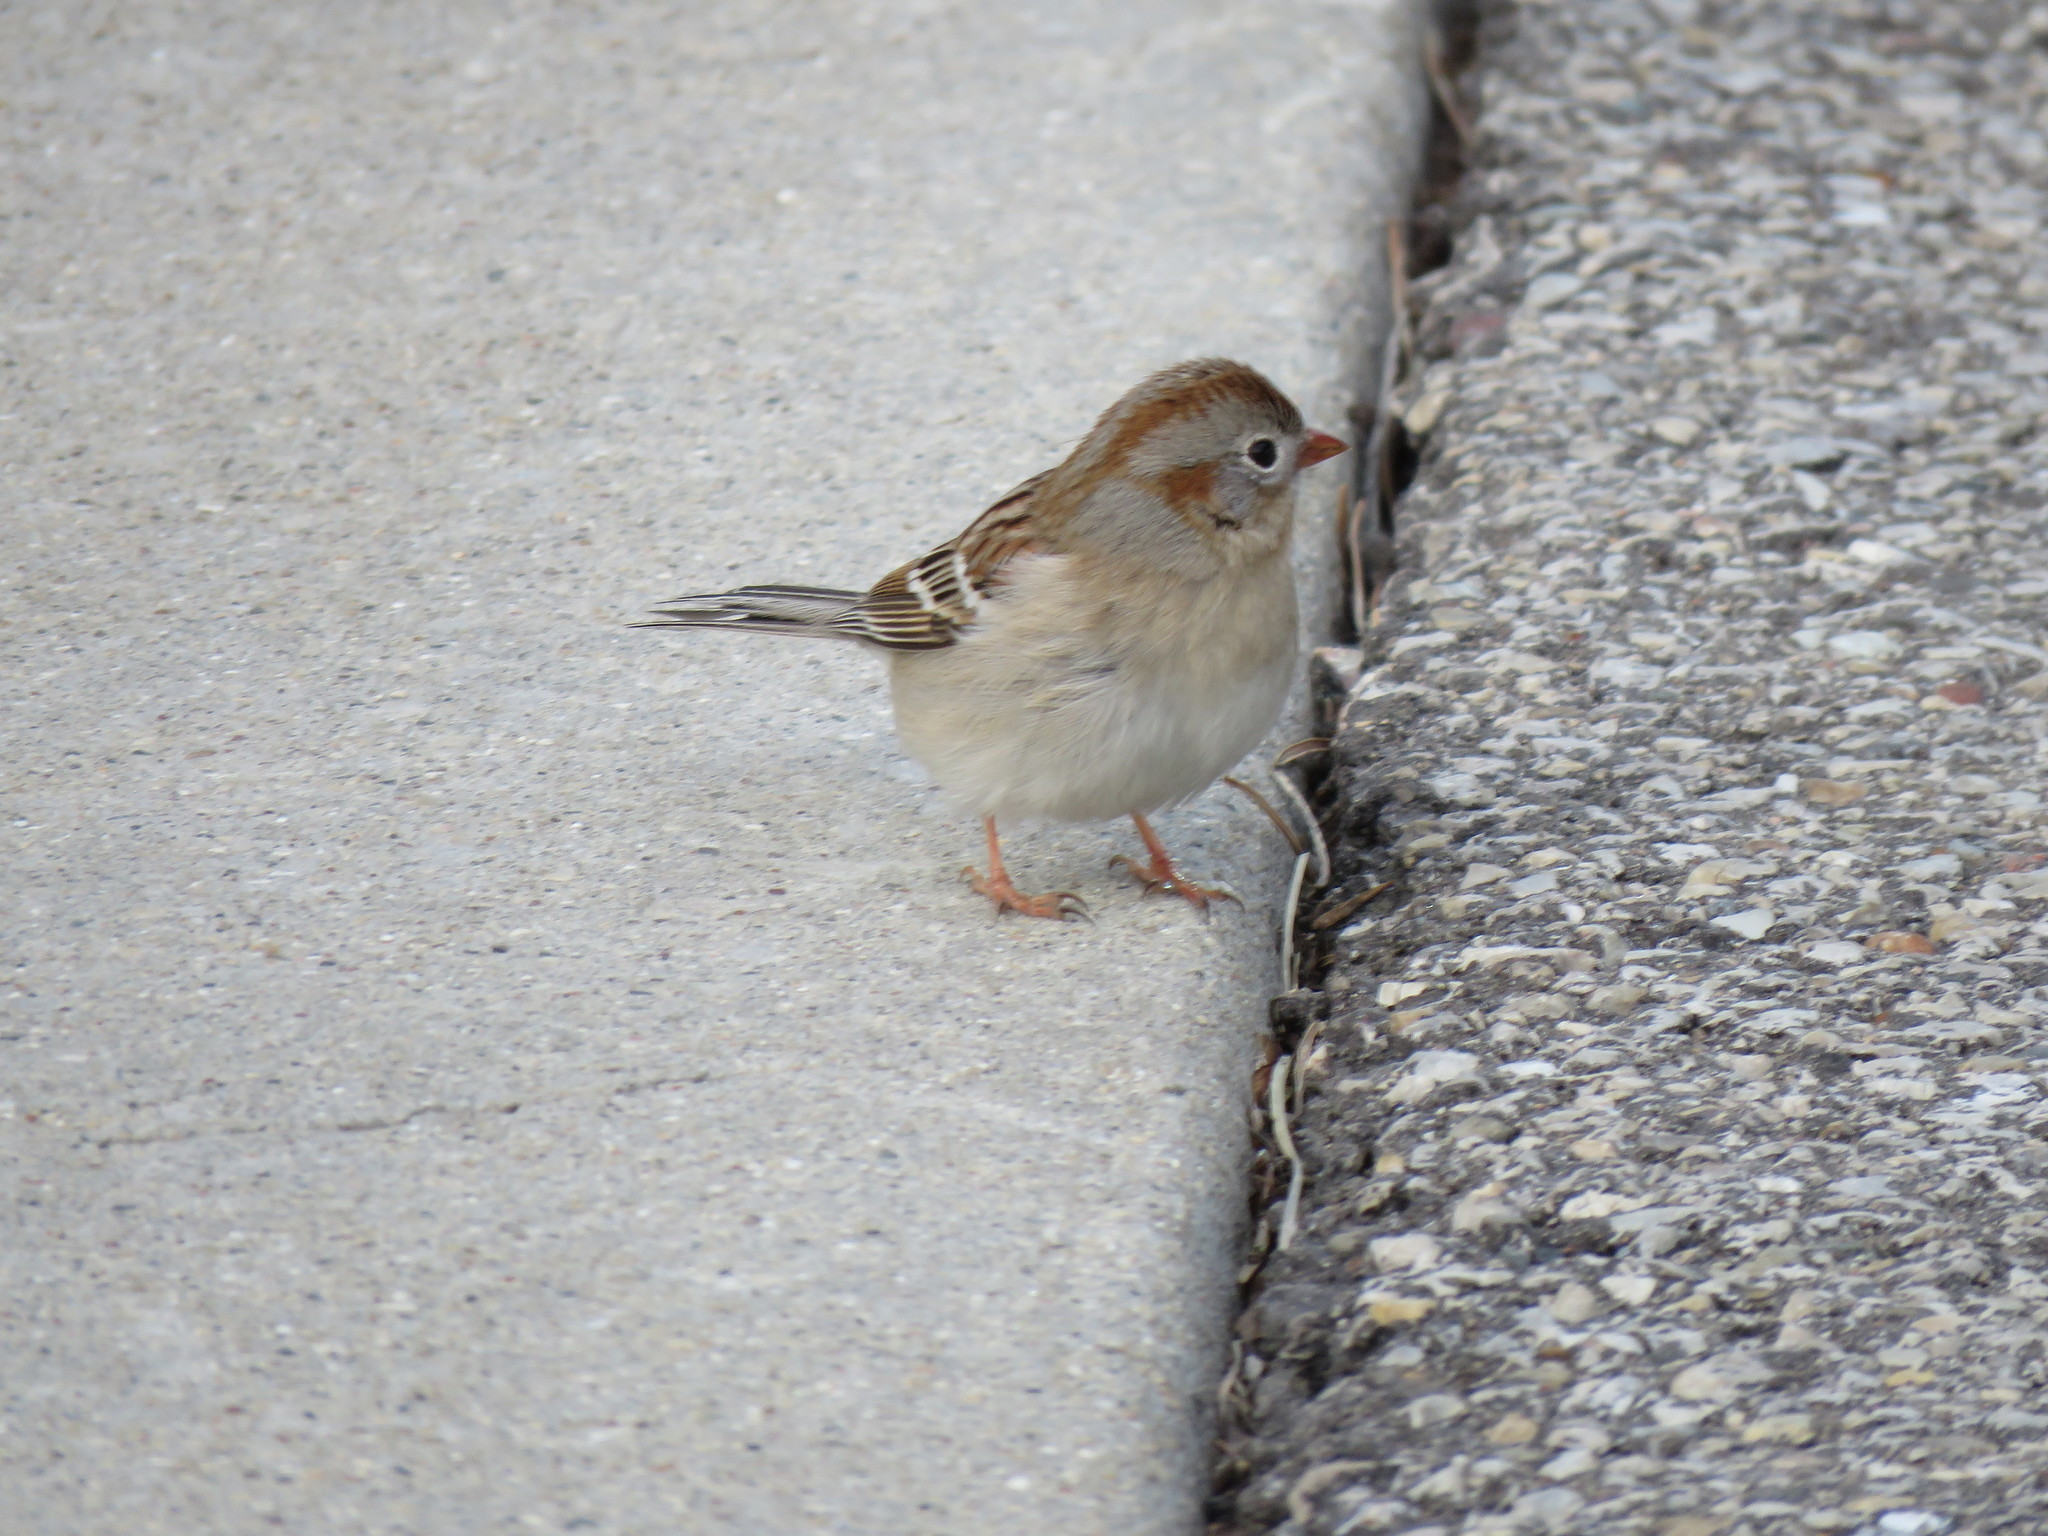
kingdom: Animalia
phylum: Chordata
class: Aves
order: Passeriformes
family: Passerellidae
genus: Spizella
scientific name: Spizella pusilla
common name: Field sparrow
